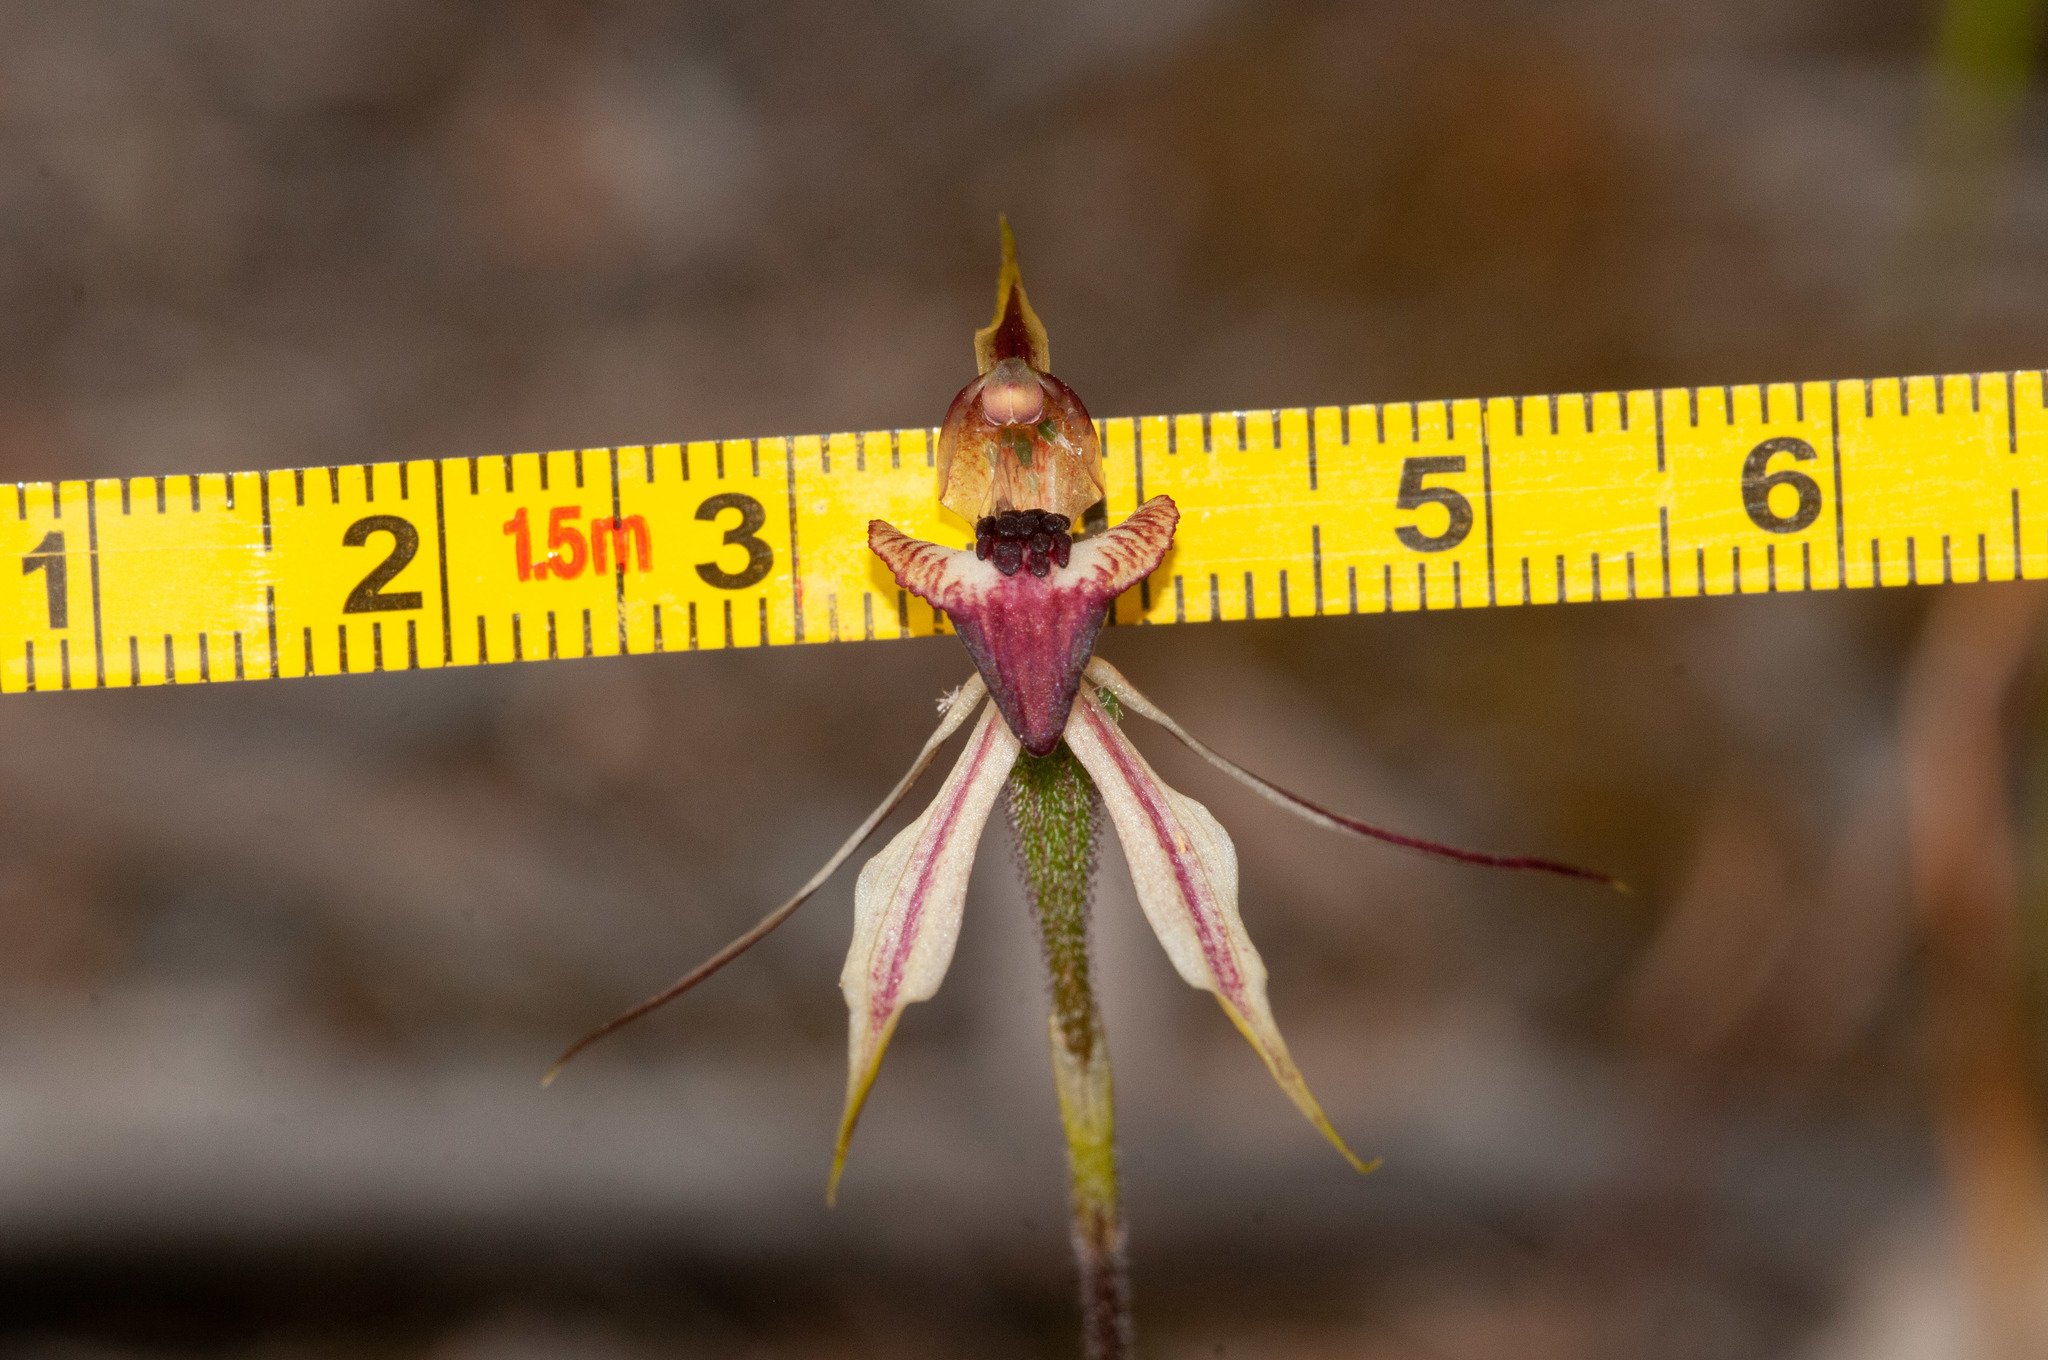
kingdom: Plantae
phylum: Tracheophyta
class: Liliopsida
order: Asparagales
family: Orchidaceae
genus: Caladenia
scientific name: Caladenia cardiochila
